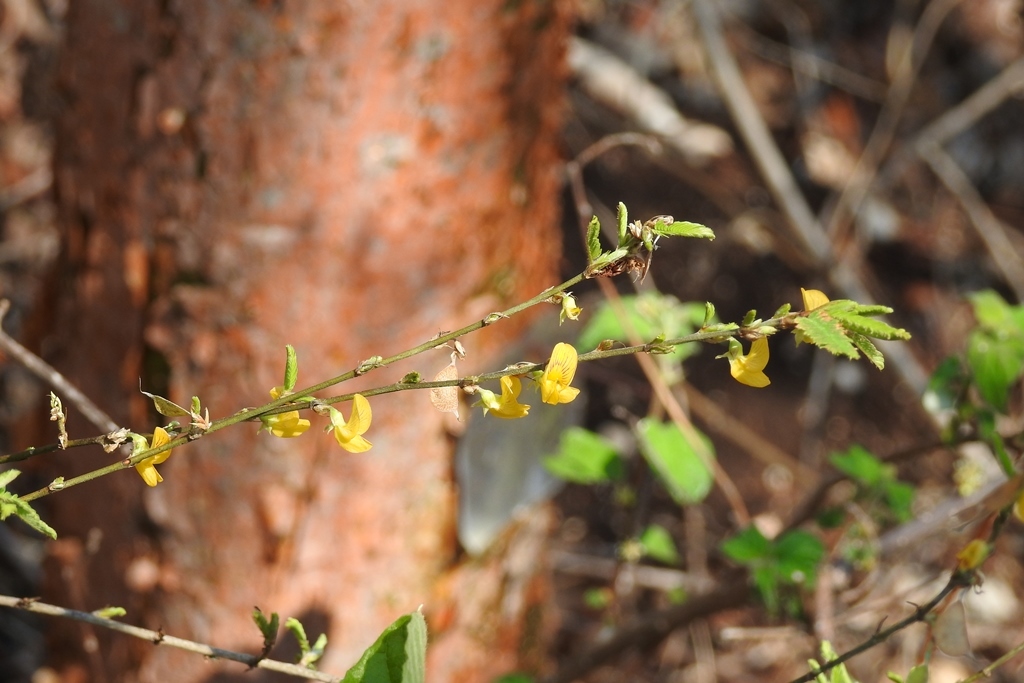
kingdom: Plantae
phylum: Tracheophyta
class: Magnoliopsida
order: Fabales
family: Fabaceae
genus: Ctenodon
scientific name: Ctenodon compactus
